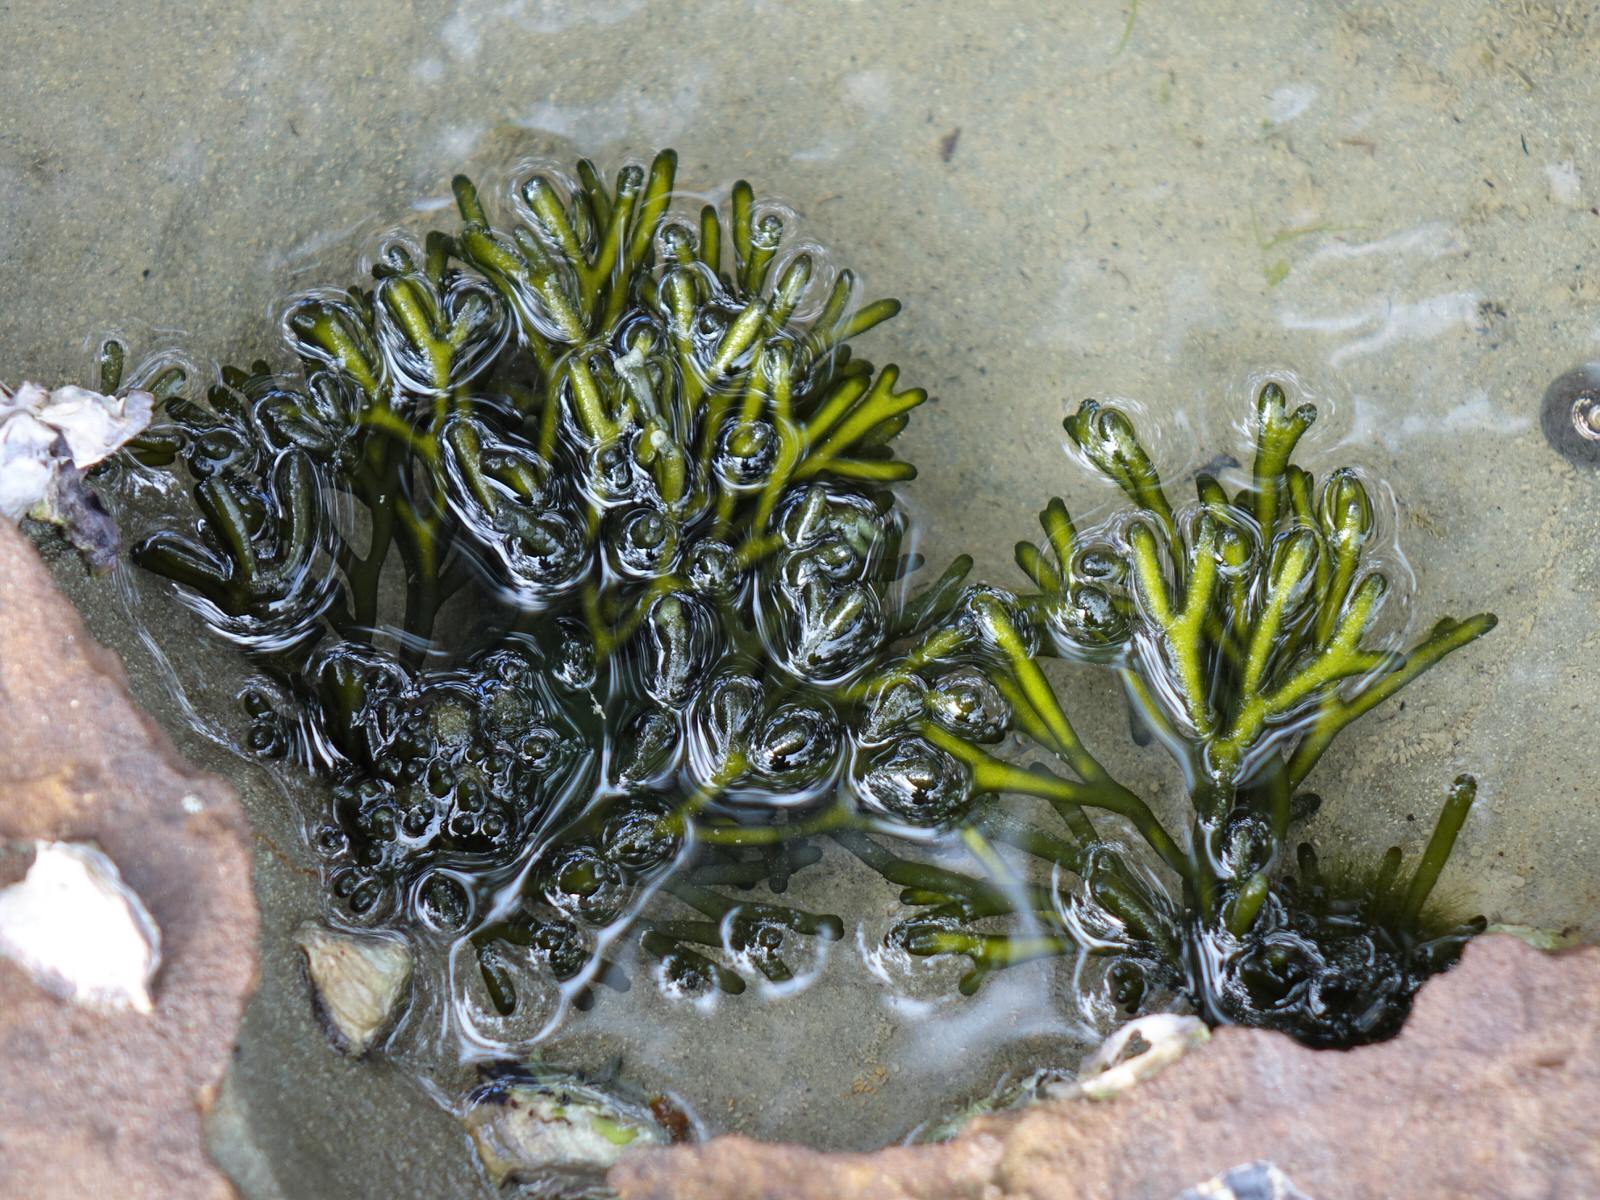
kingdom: Plantae
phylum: Chlorophyta
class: Ulvophyceae
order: Bryopsidales
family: Codiaceae
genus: Codium
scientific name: Codium fragile
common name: Dead man's fingers
